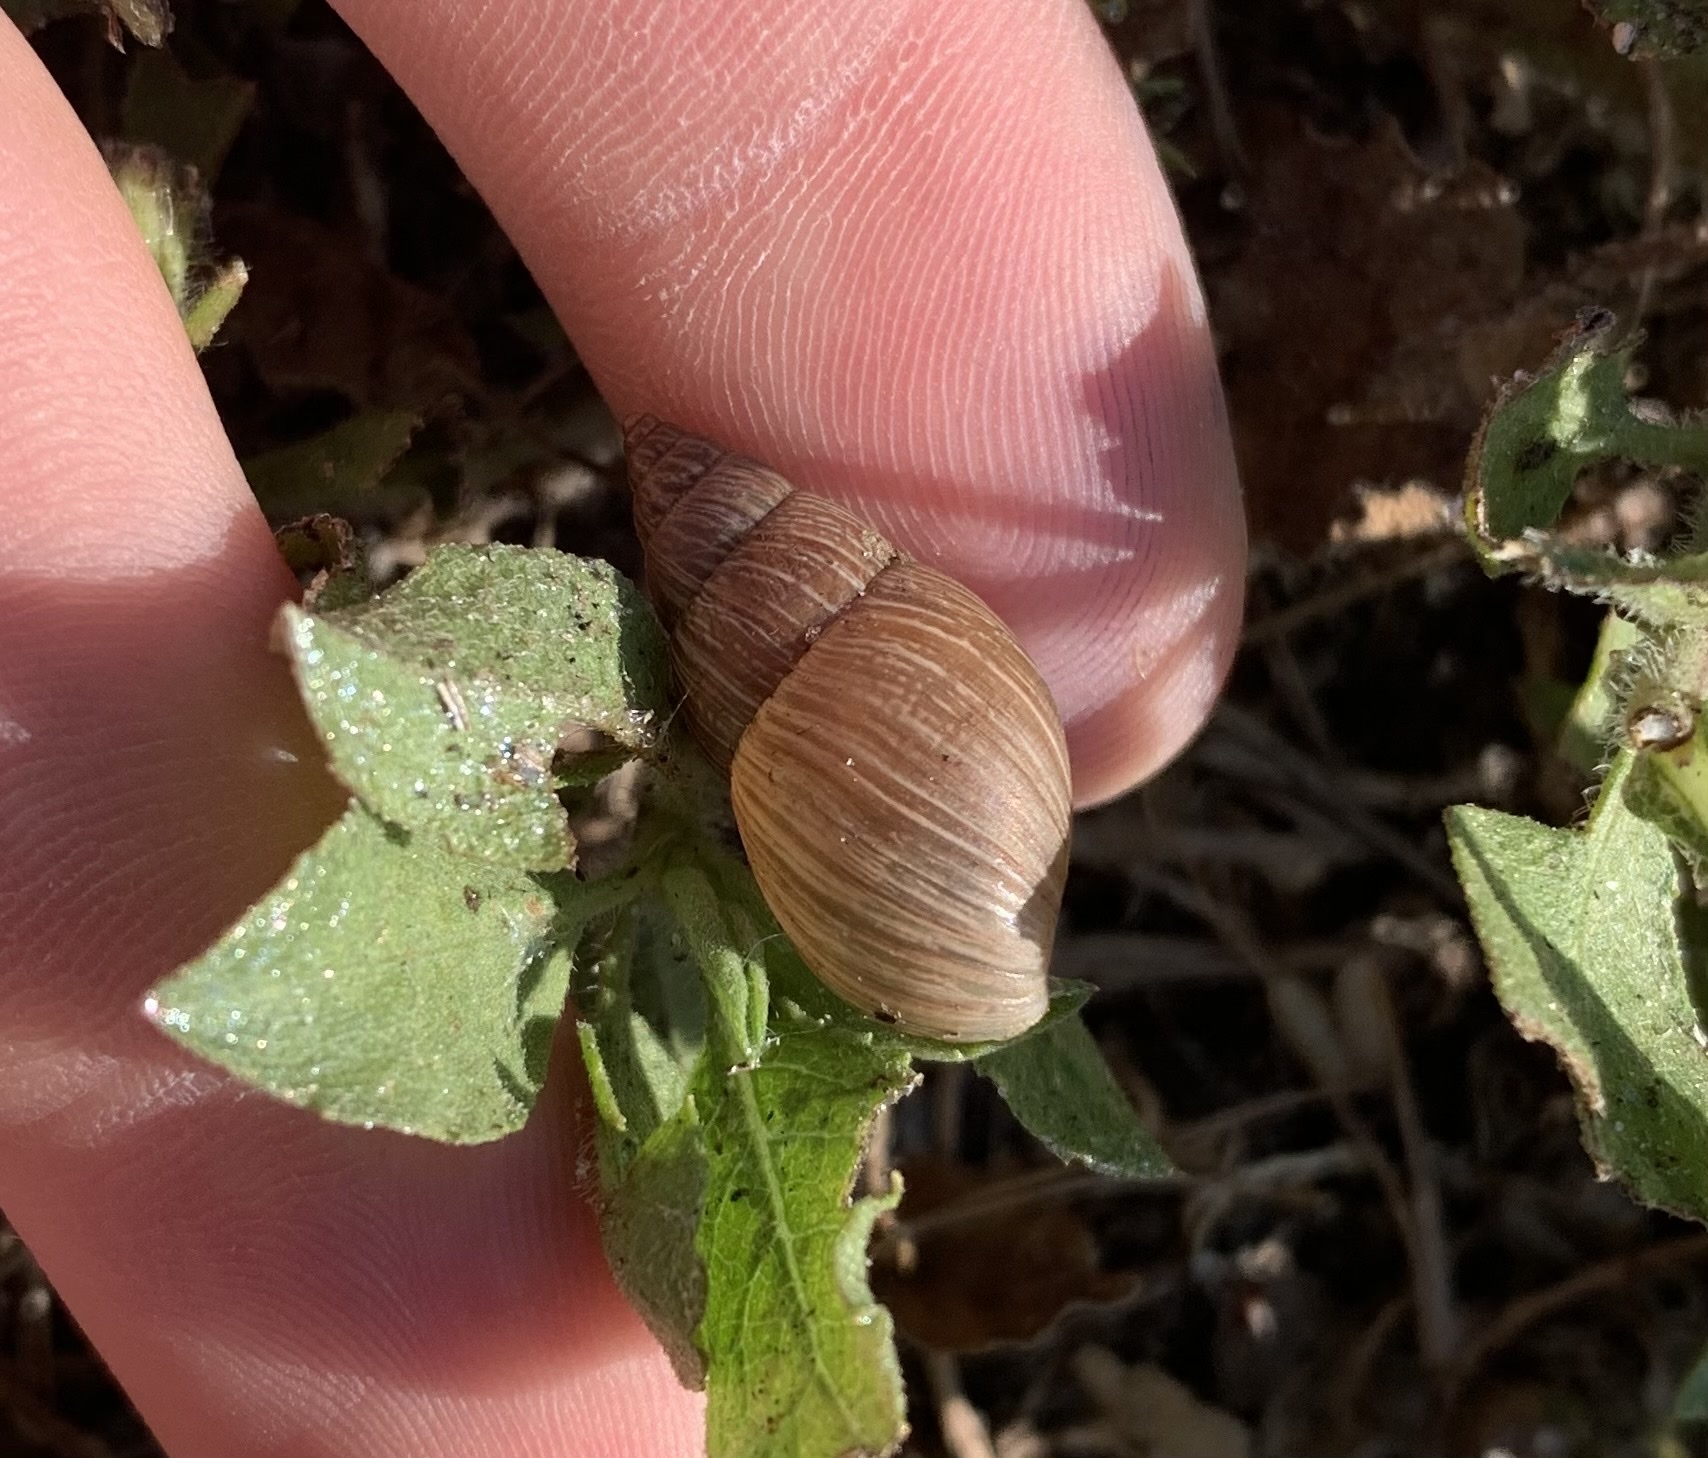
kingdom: Animalia
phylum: Mollusca
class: Gastropoda
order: Stylommatophora
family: Bulimulidae
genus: Bulimulus
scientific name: Bulimulus bonariensis
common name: Snail
